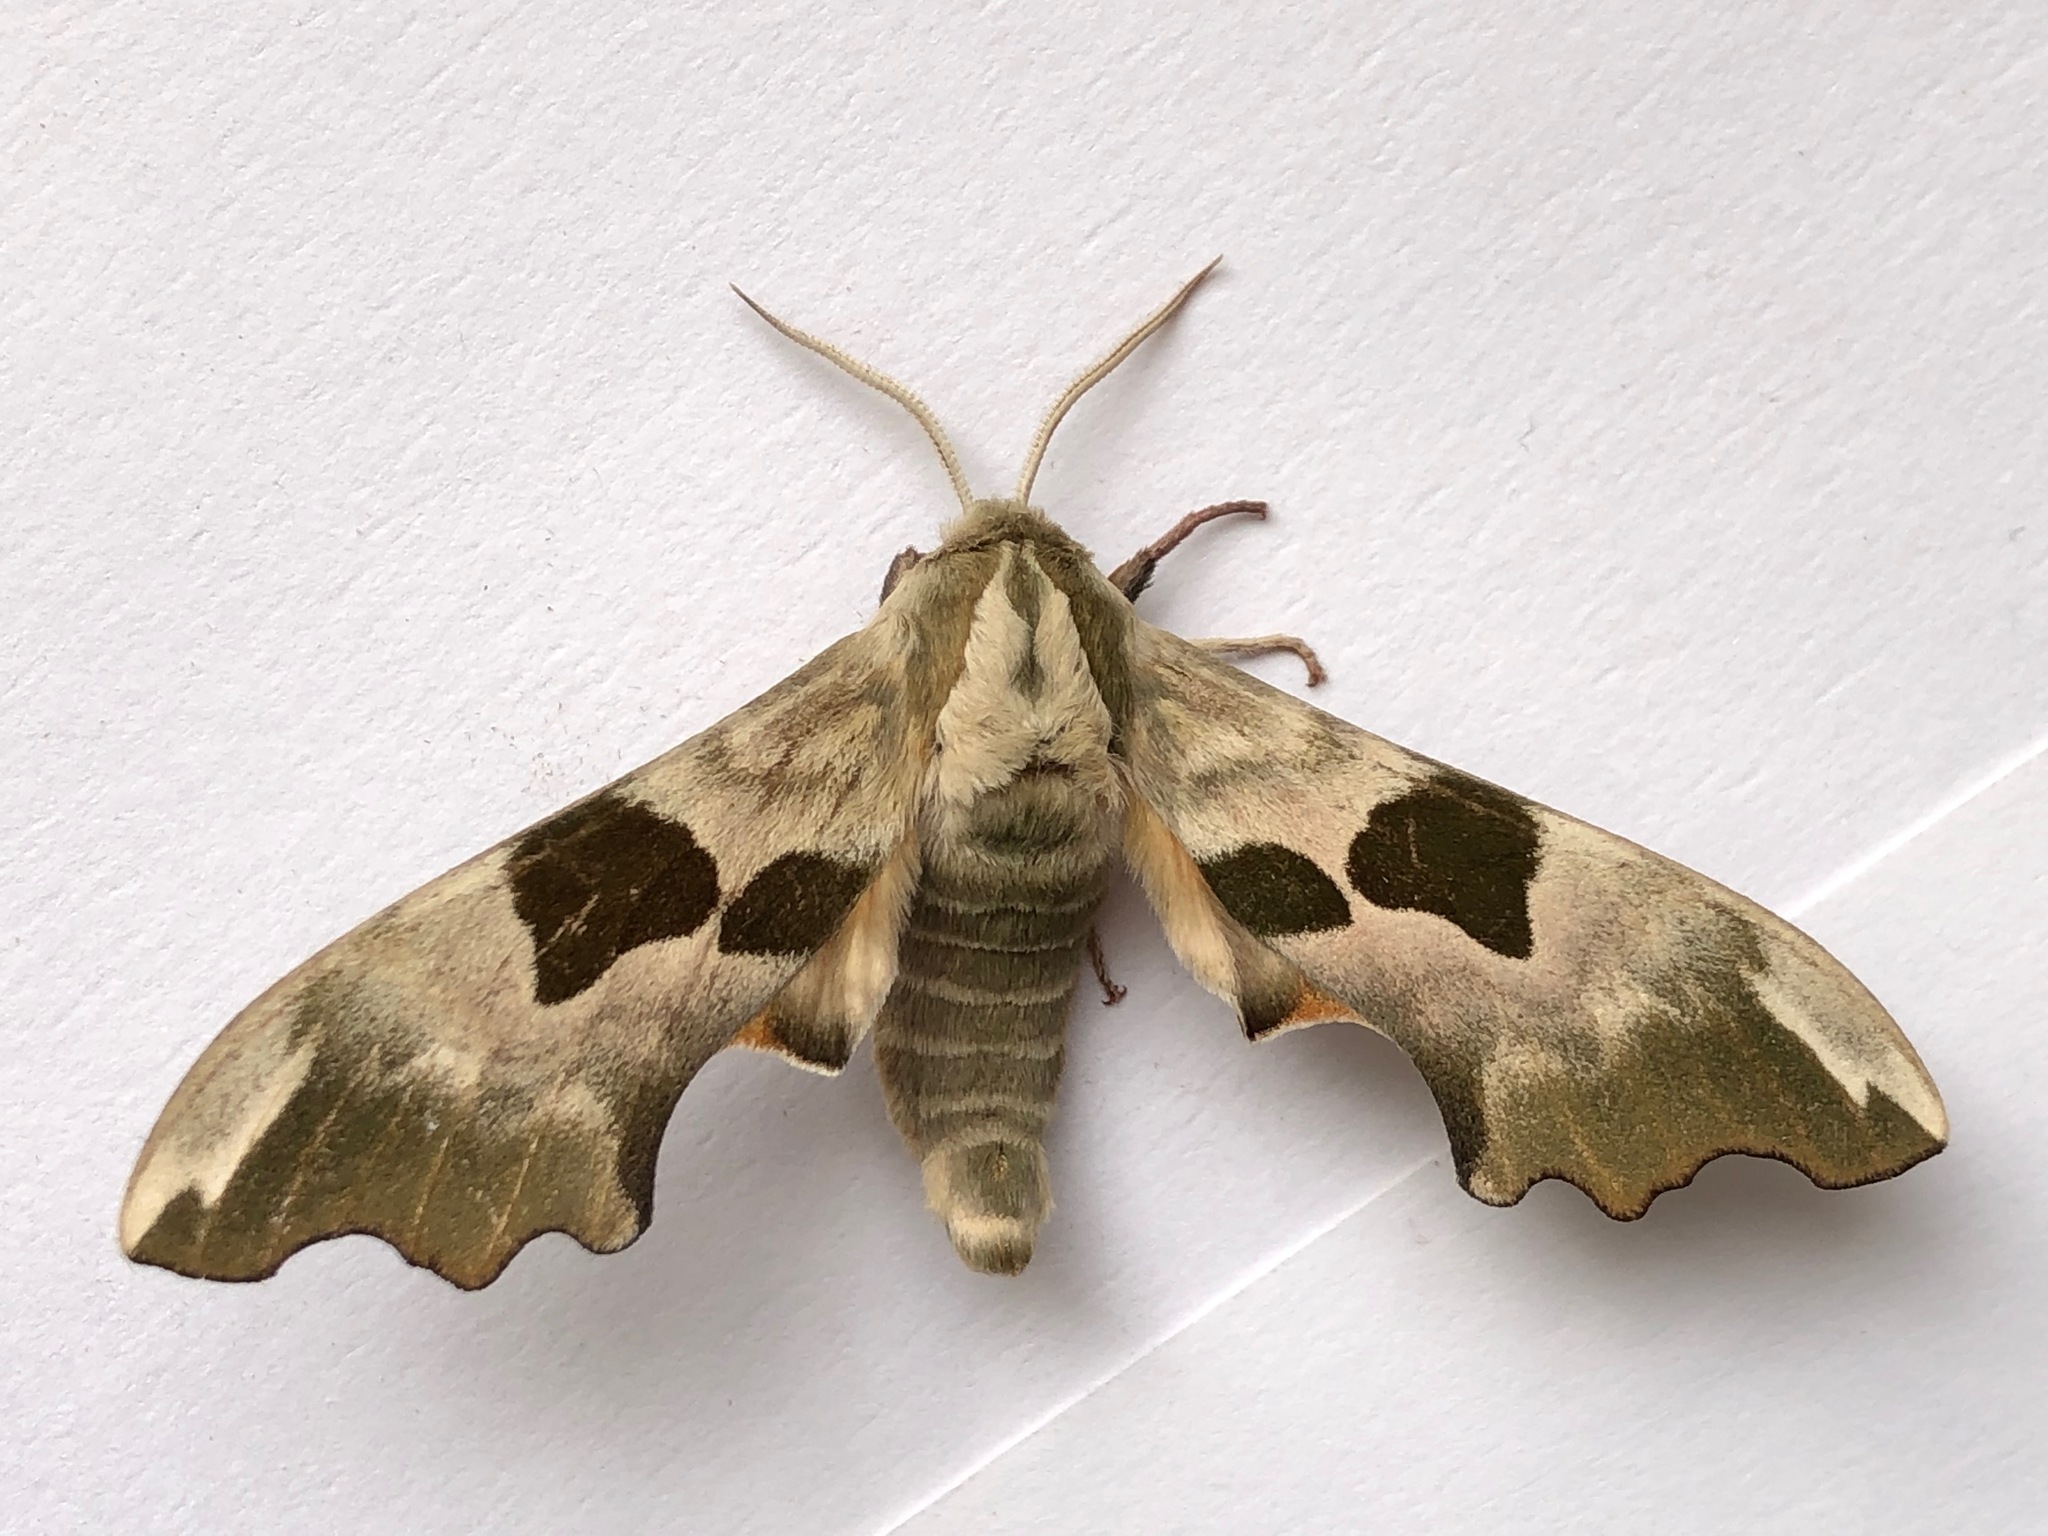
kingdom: Animalia
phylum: Arthropoda
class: Insecta
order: Lepidoptera
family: Sphingidae
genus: Mimas
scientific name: Mimas tiliae
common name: Lime hawk-moth
